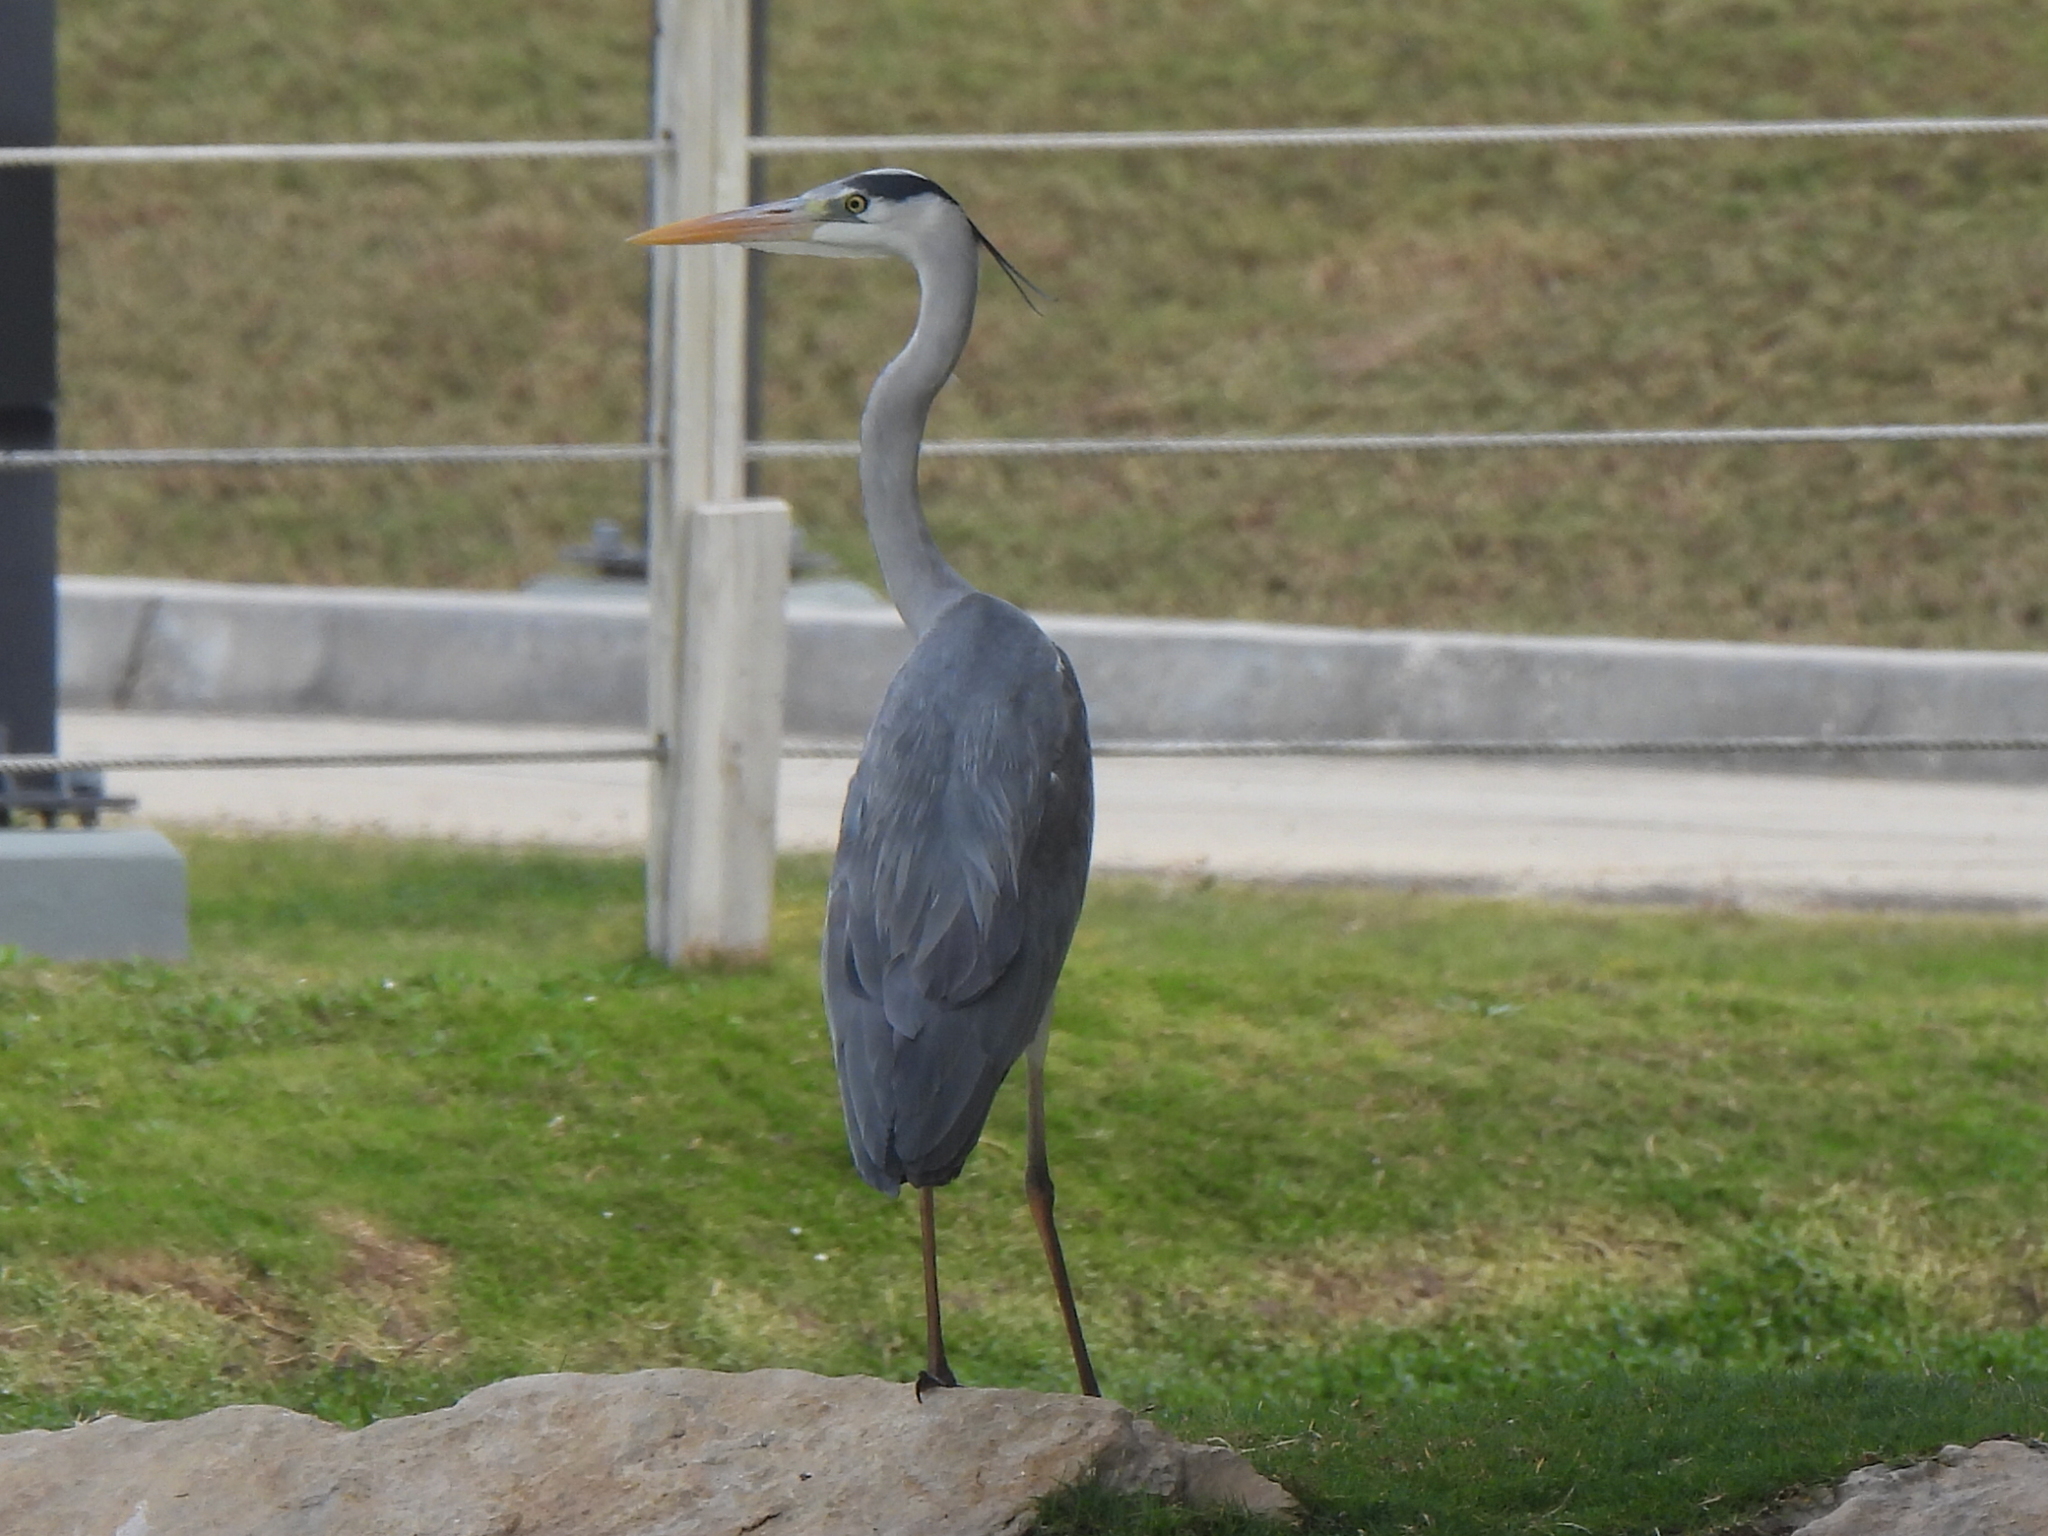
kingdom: Animalia
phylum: Chordata
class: Aves
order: Pelecaniformes
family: Ardeidae
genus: Ardea
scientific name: Ardea cinerea
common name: Grey heron
